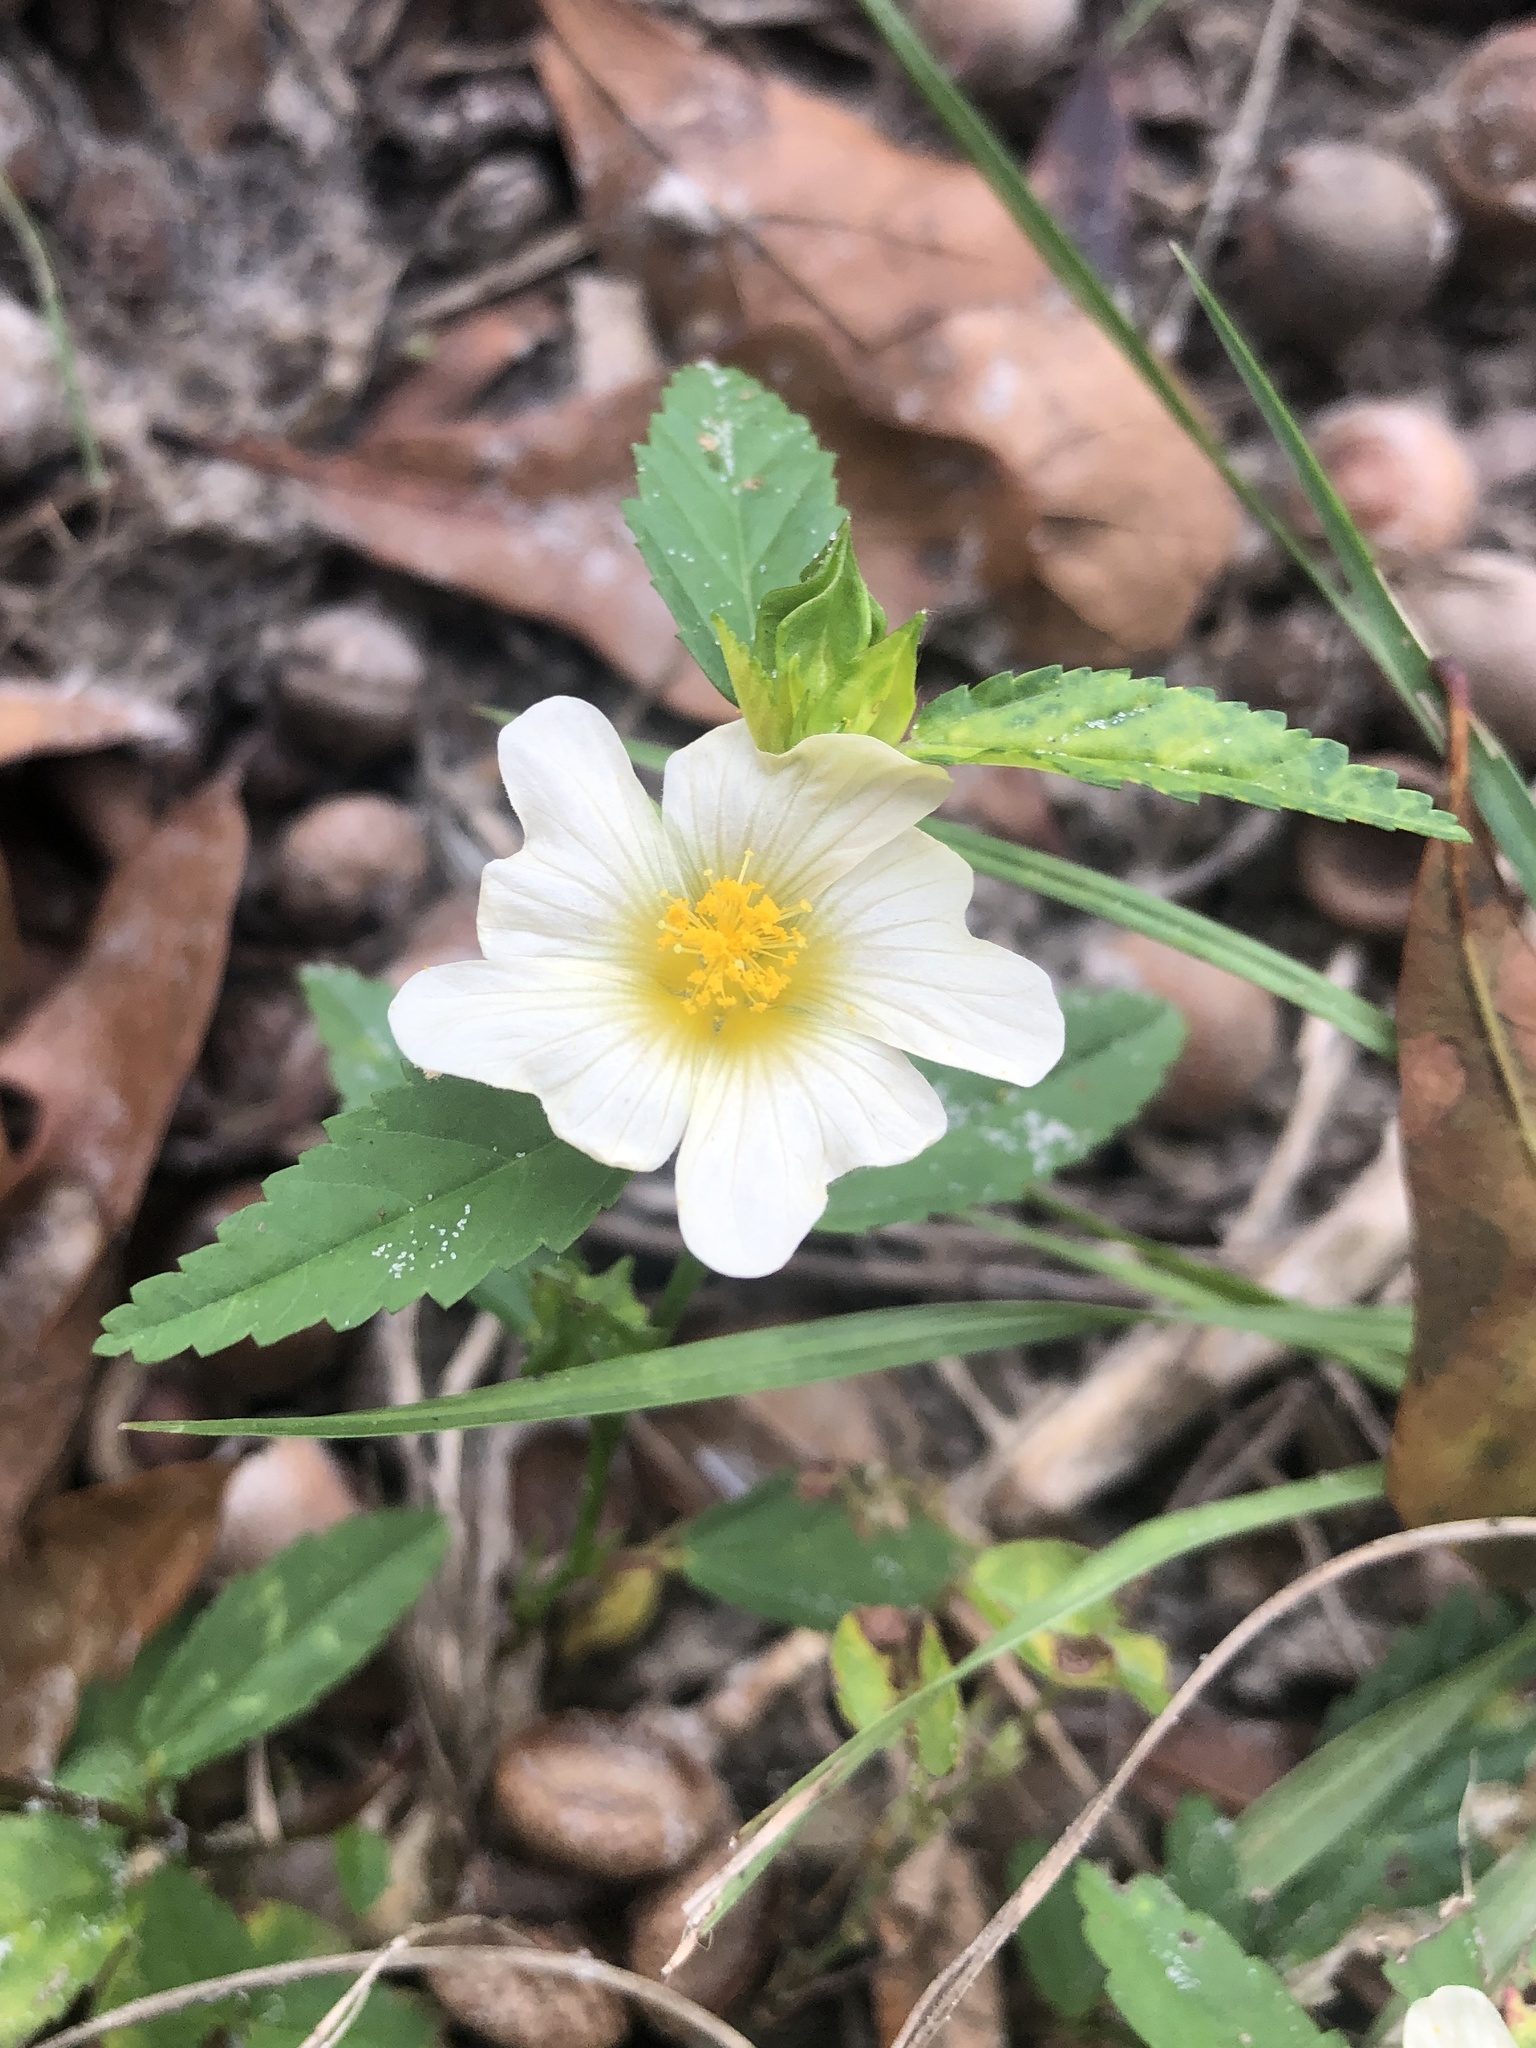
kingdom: Plantae
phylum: Tracheophyta
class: Magnoliopsida
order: Malvales
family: Malvaceae
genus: Sida
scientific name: Sida ulmifolia
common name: Broom weed
